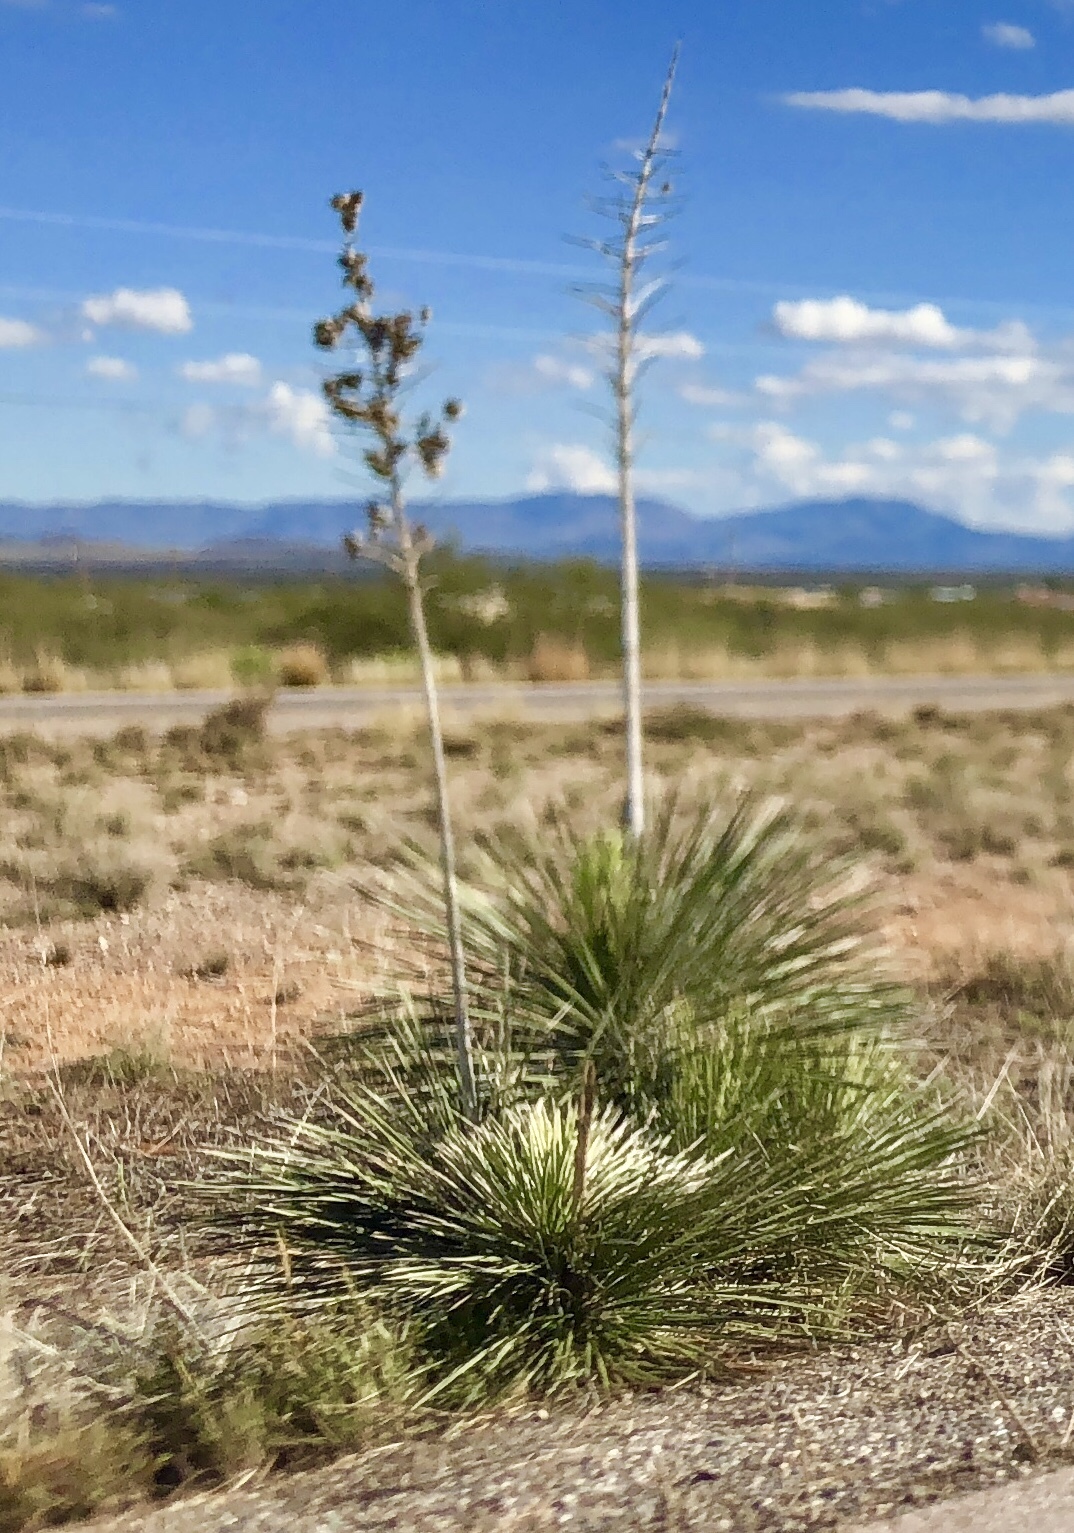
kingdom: Plantae
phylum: Tracheophyta
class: Liliopsida
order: Asparagales
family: Asparagaceae
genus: Yucca
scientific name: Yucca elata
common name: Palmella
